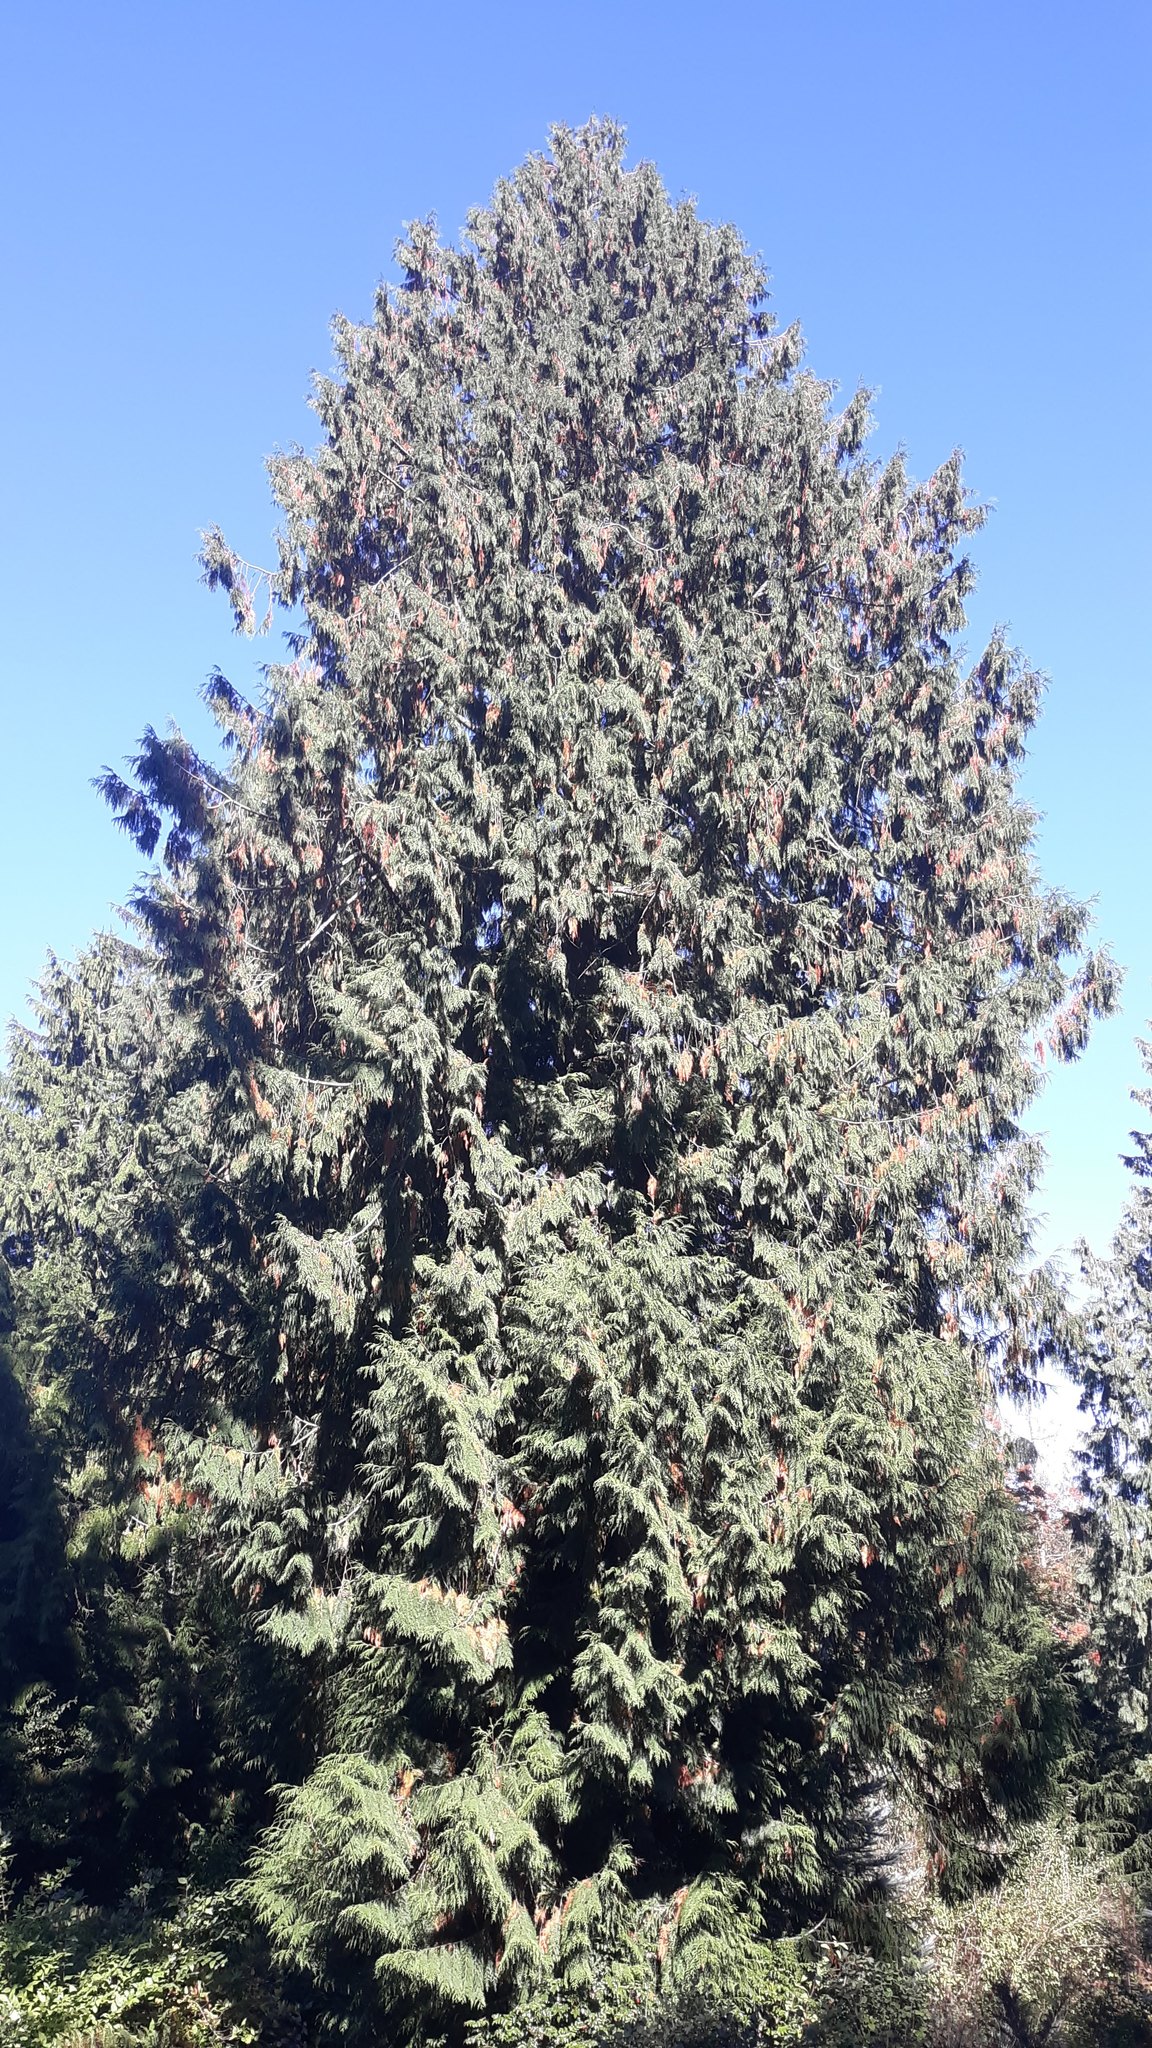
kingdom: Plantae
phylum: Tracheophyta
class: Pinopsida
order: Pinales
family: Cupressaceae
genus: Thuja
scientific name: Thuja plicata
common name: Western red-cedar
